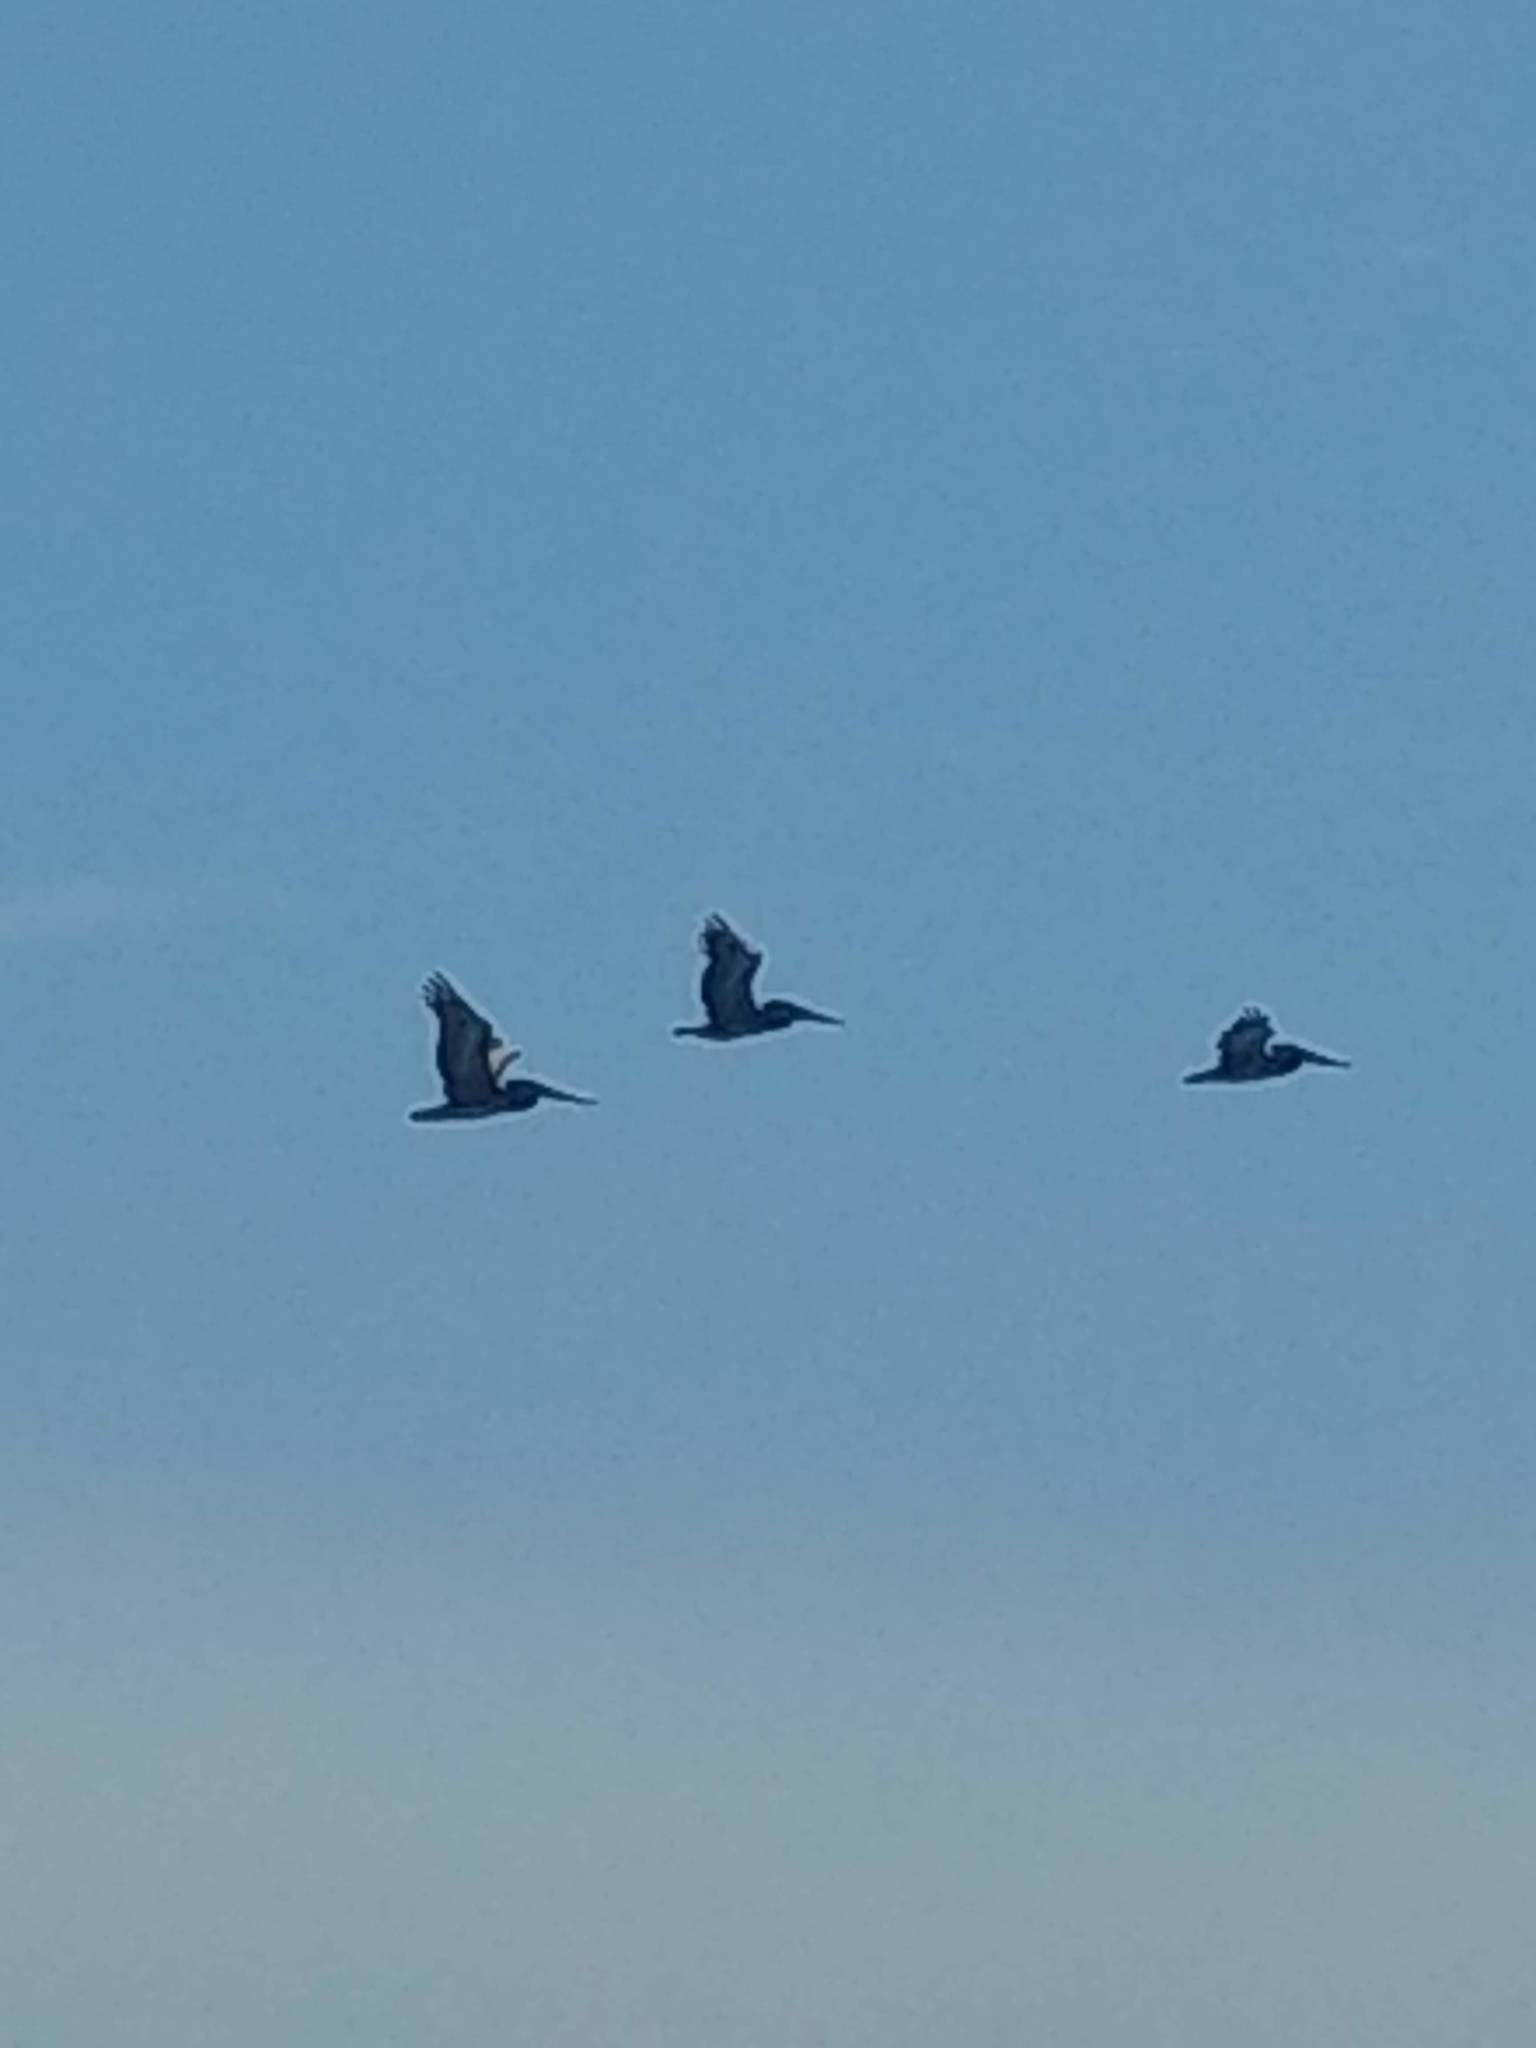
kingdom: Animalia
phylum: Chordata
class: Aves
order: Pelecaniformes
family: Pelecanidae
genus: Pelecanus
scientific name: Pelecanus occidentalis
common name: Brown pelican
